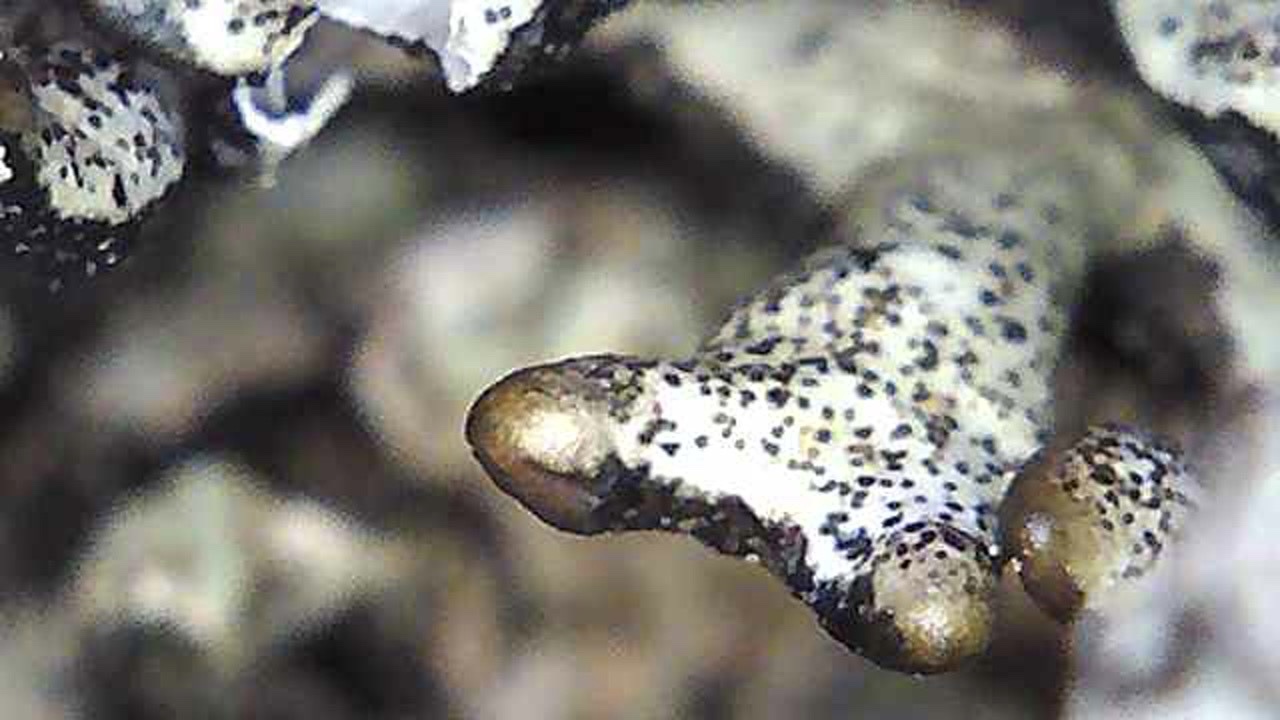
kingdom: Fungi
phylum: Ascomycota
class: Lecanoromycetes
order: Lecanorales
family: Parmeliaceae
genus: Hypogymnia
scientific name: Hypogymnia imshaugii
